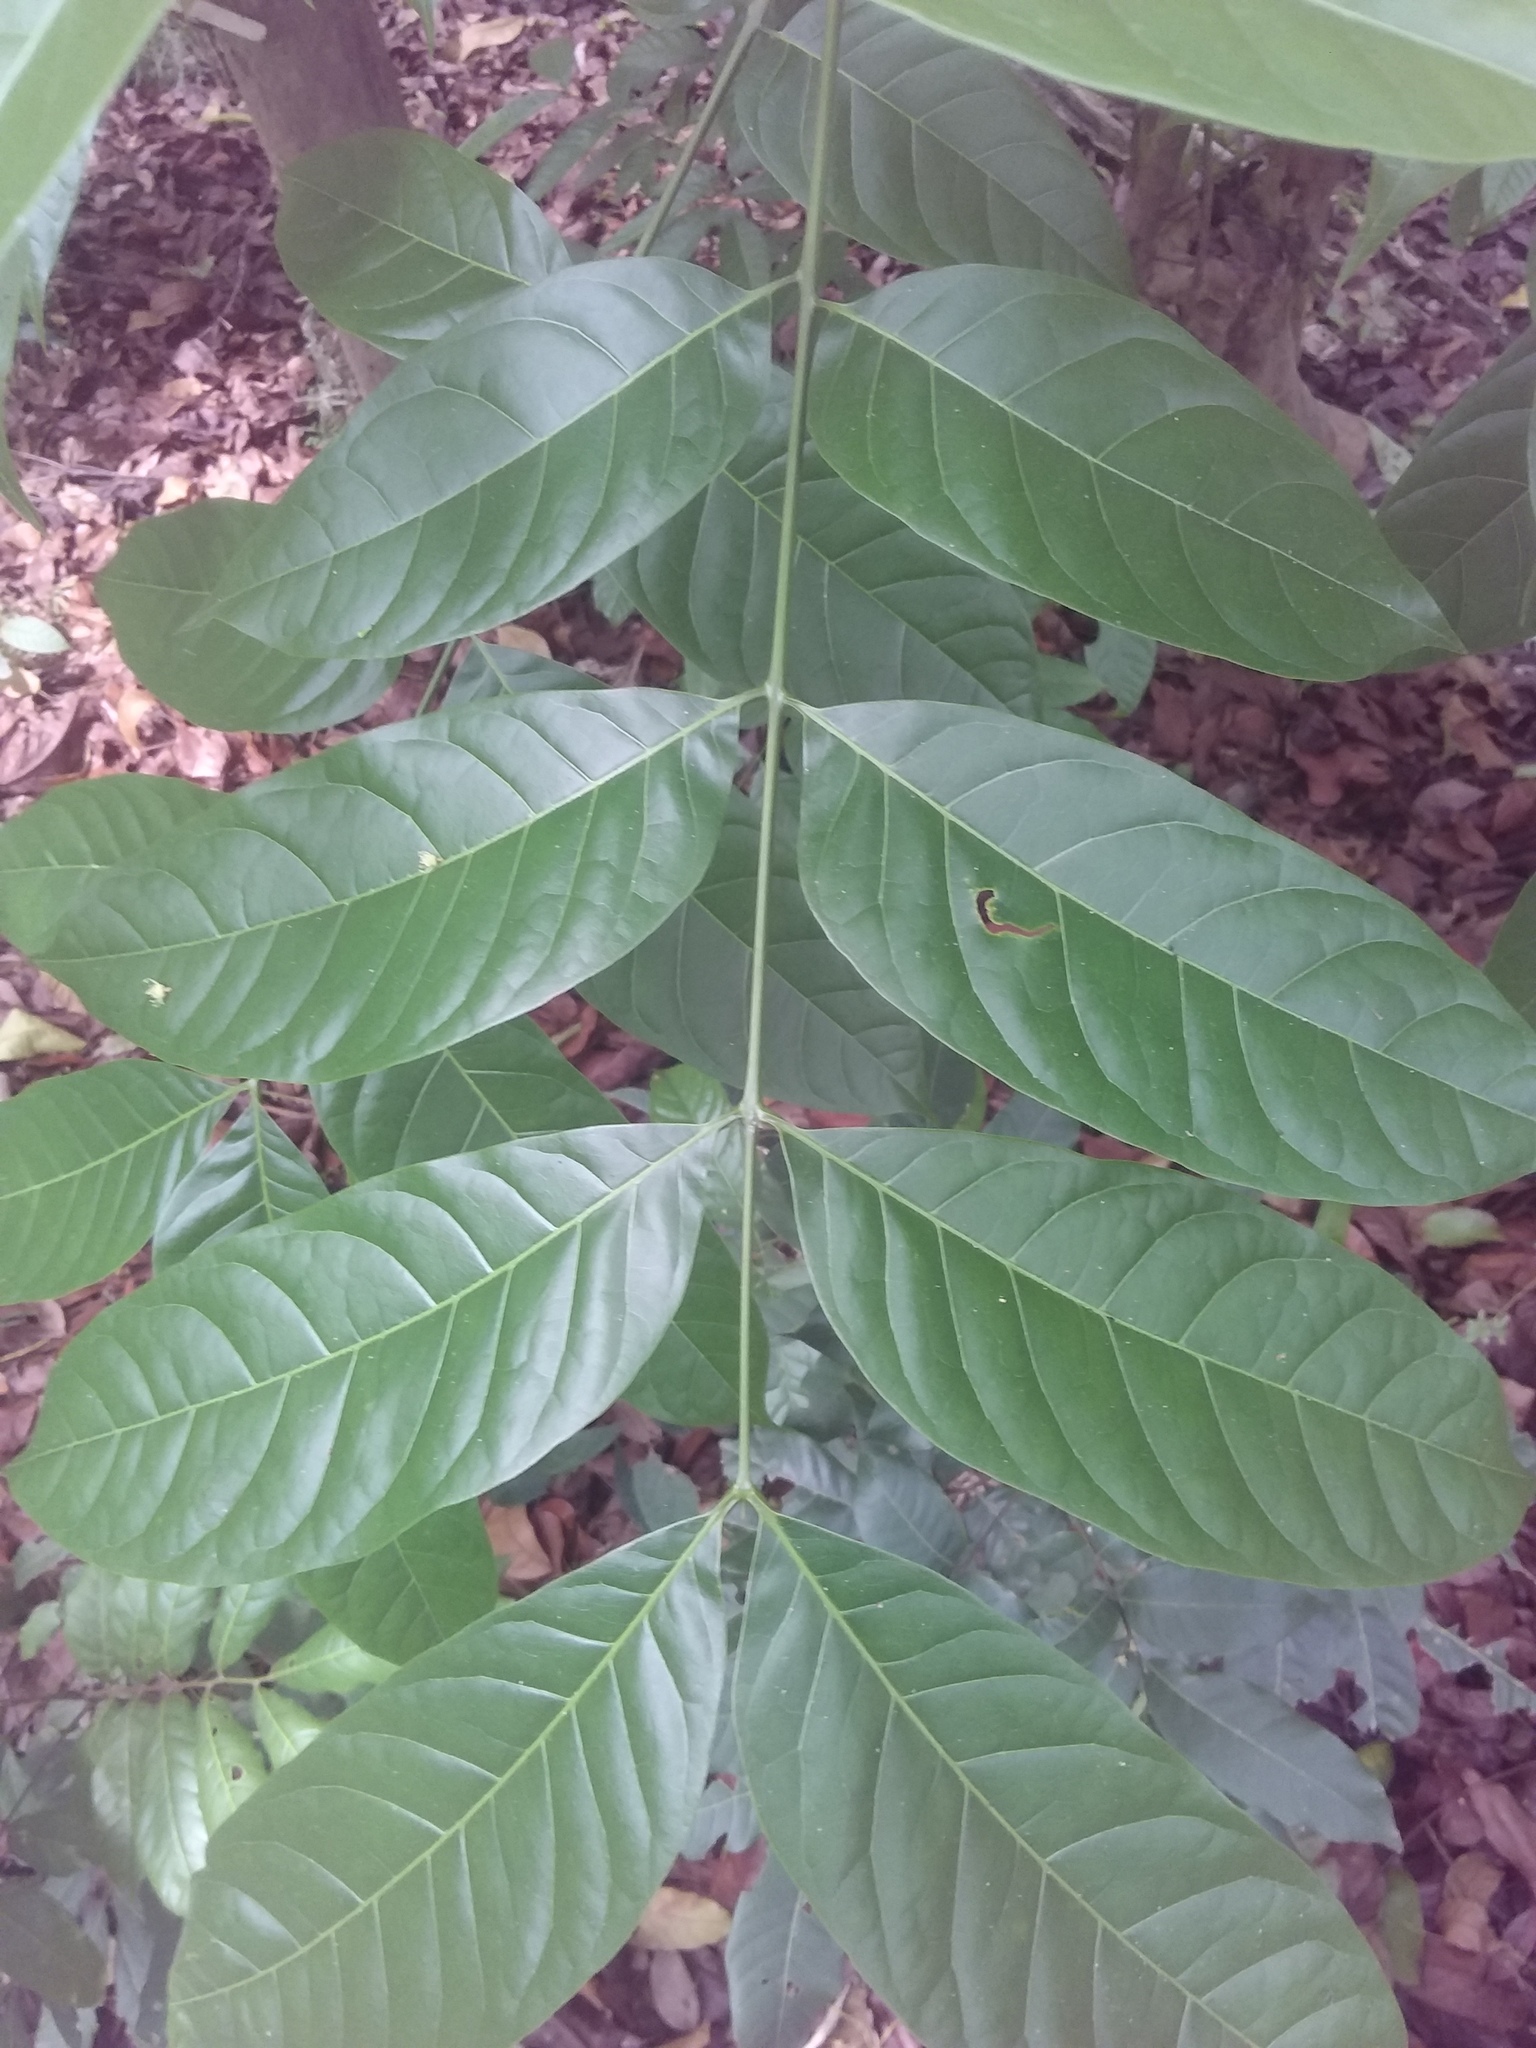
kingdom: Plantae
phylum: Tracheophyta
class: Magnoliopsida
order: Sapindales
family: Meliaceae
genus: Swietenia
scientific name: Swietenia mahagoni
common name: West indian mahogany
